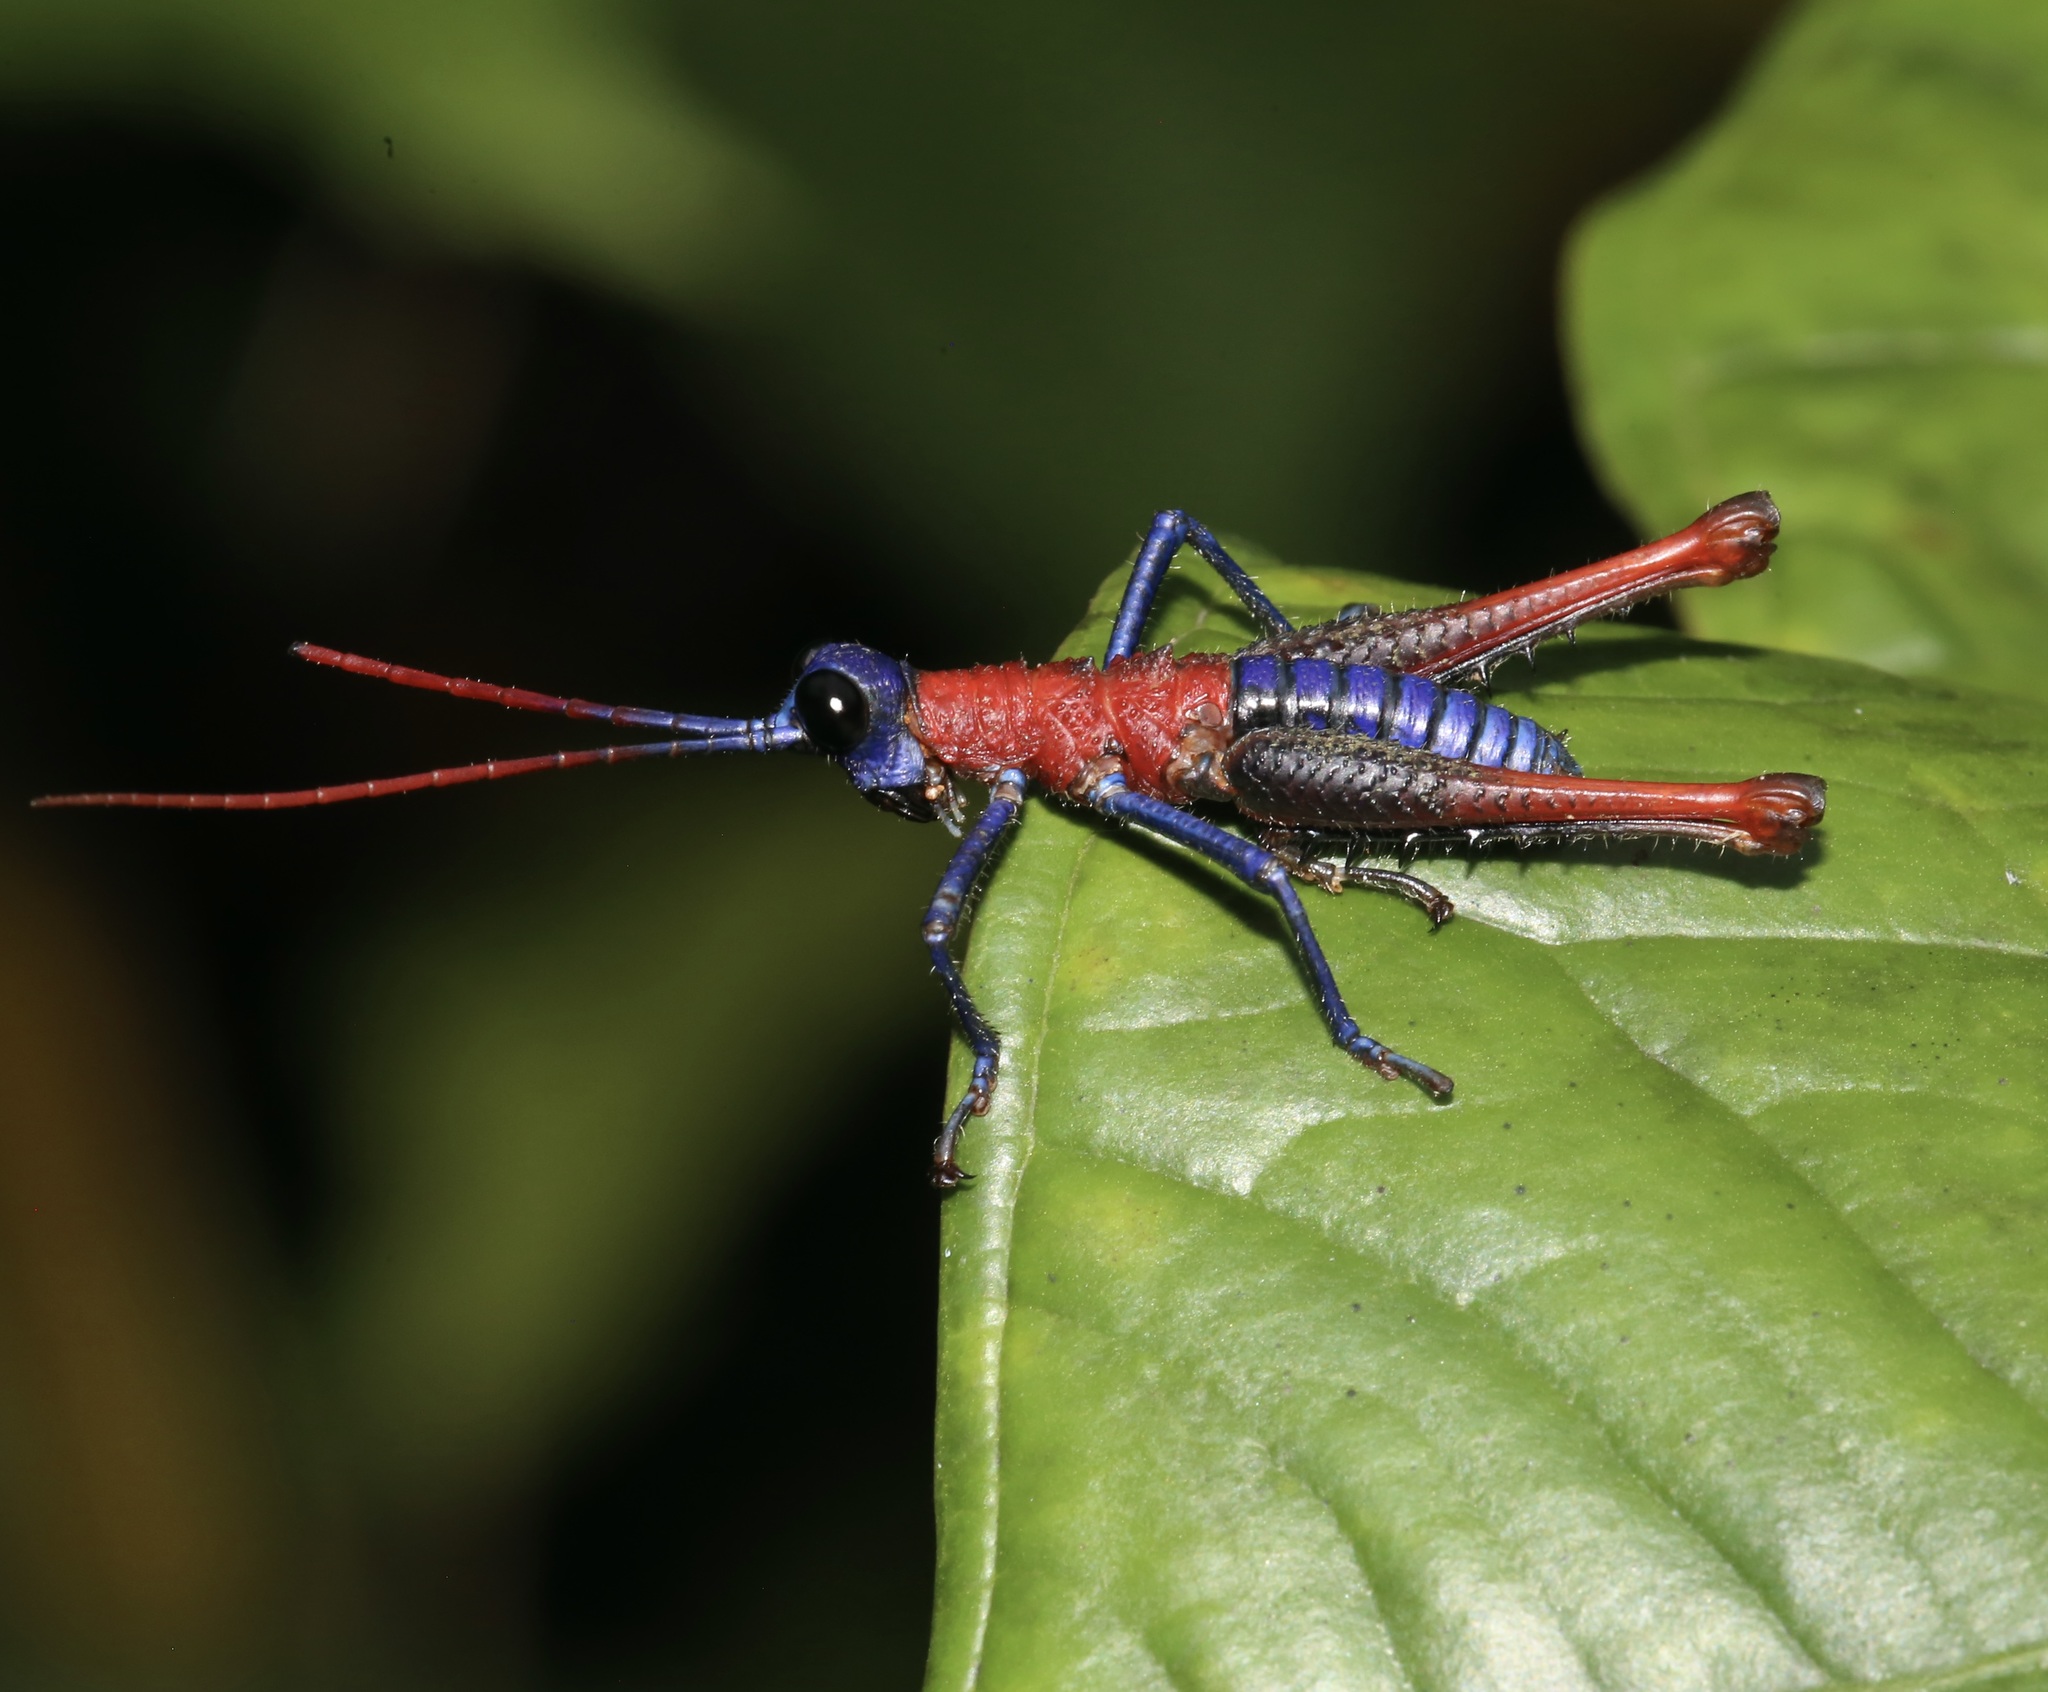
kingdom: Animalia
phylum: Arthropoda
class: Insecta
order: Orthoptera
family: Acrididae
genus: Opaon
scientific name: Opaon varicolor
